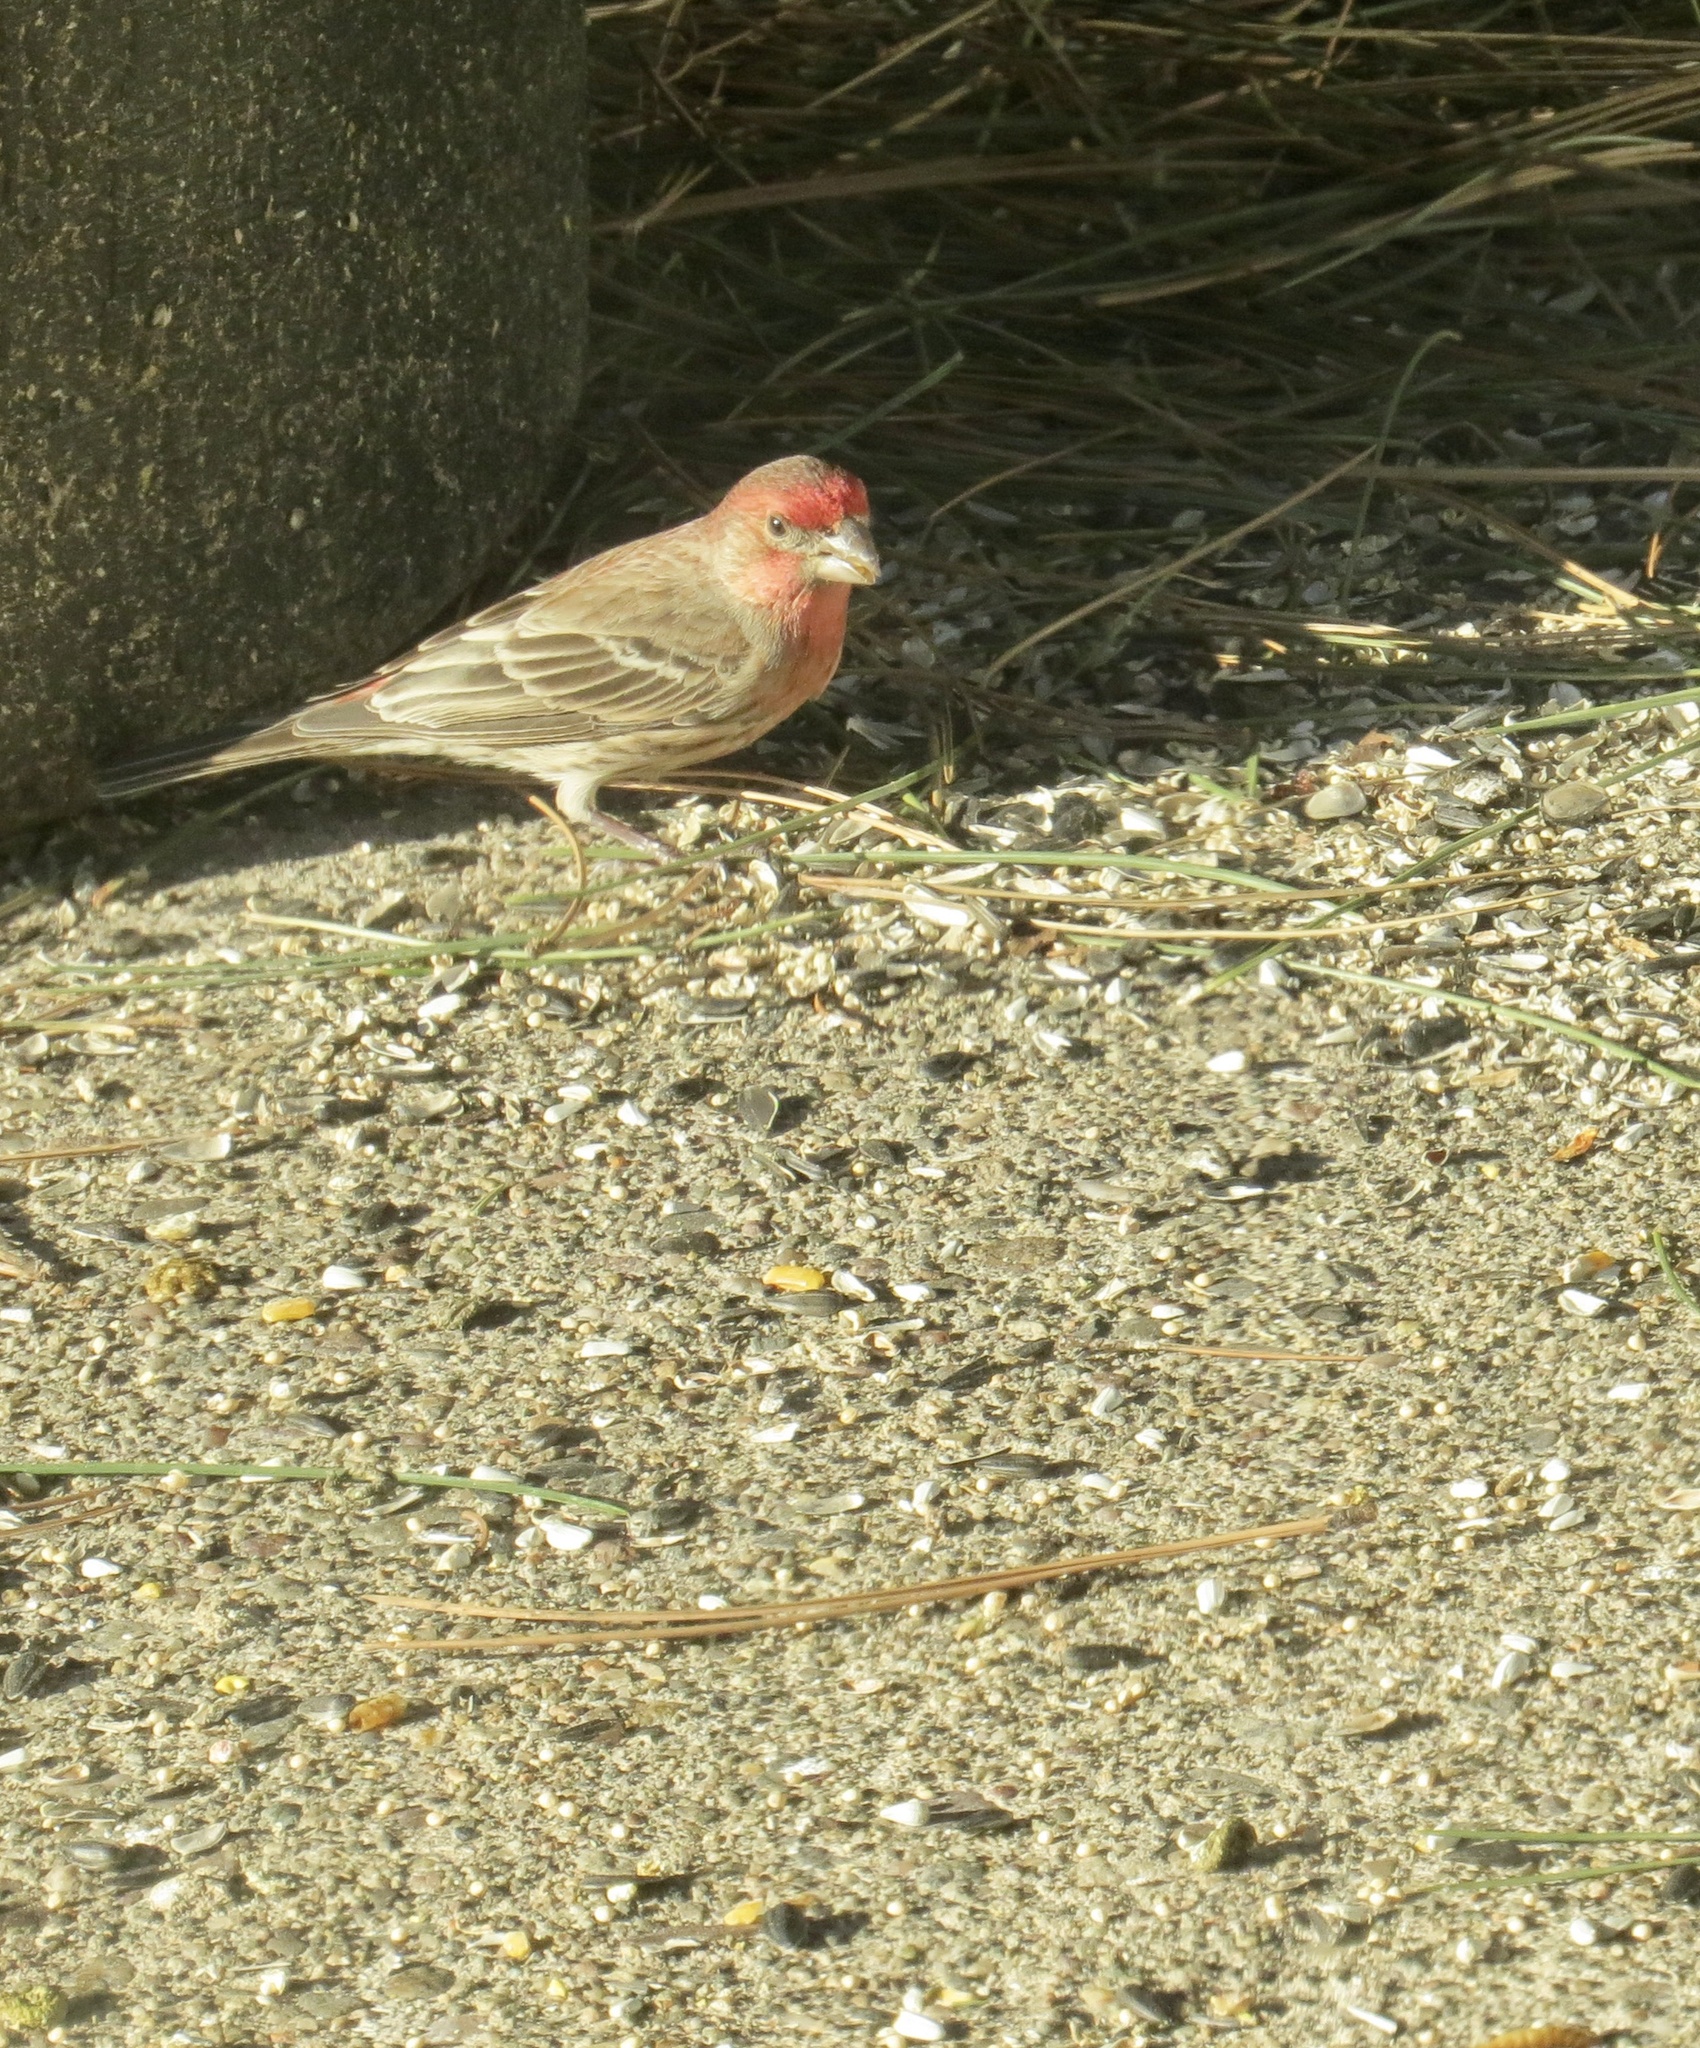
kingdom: Animalia
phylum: Chordata
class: Aves
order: Passeriformes
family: Fringillidae
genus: Haemorhous
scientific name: Haemorhous mexicanus
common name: House finch
